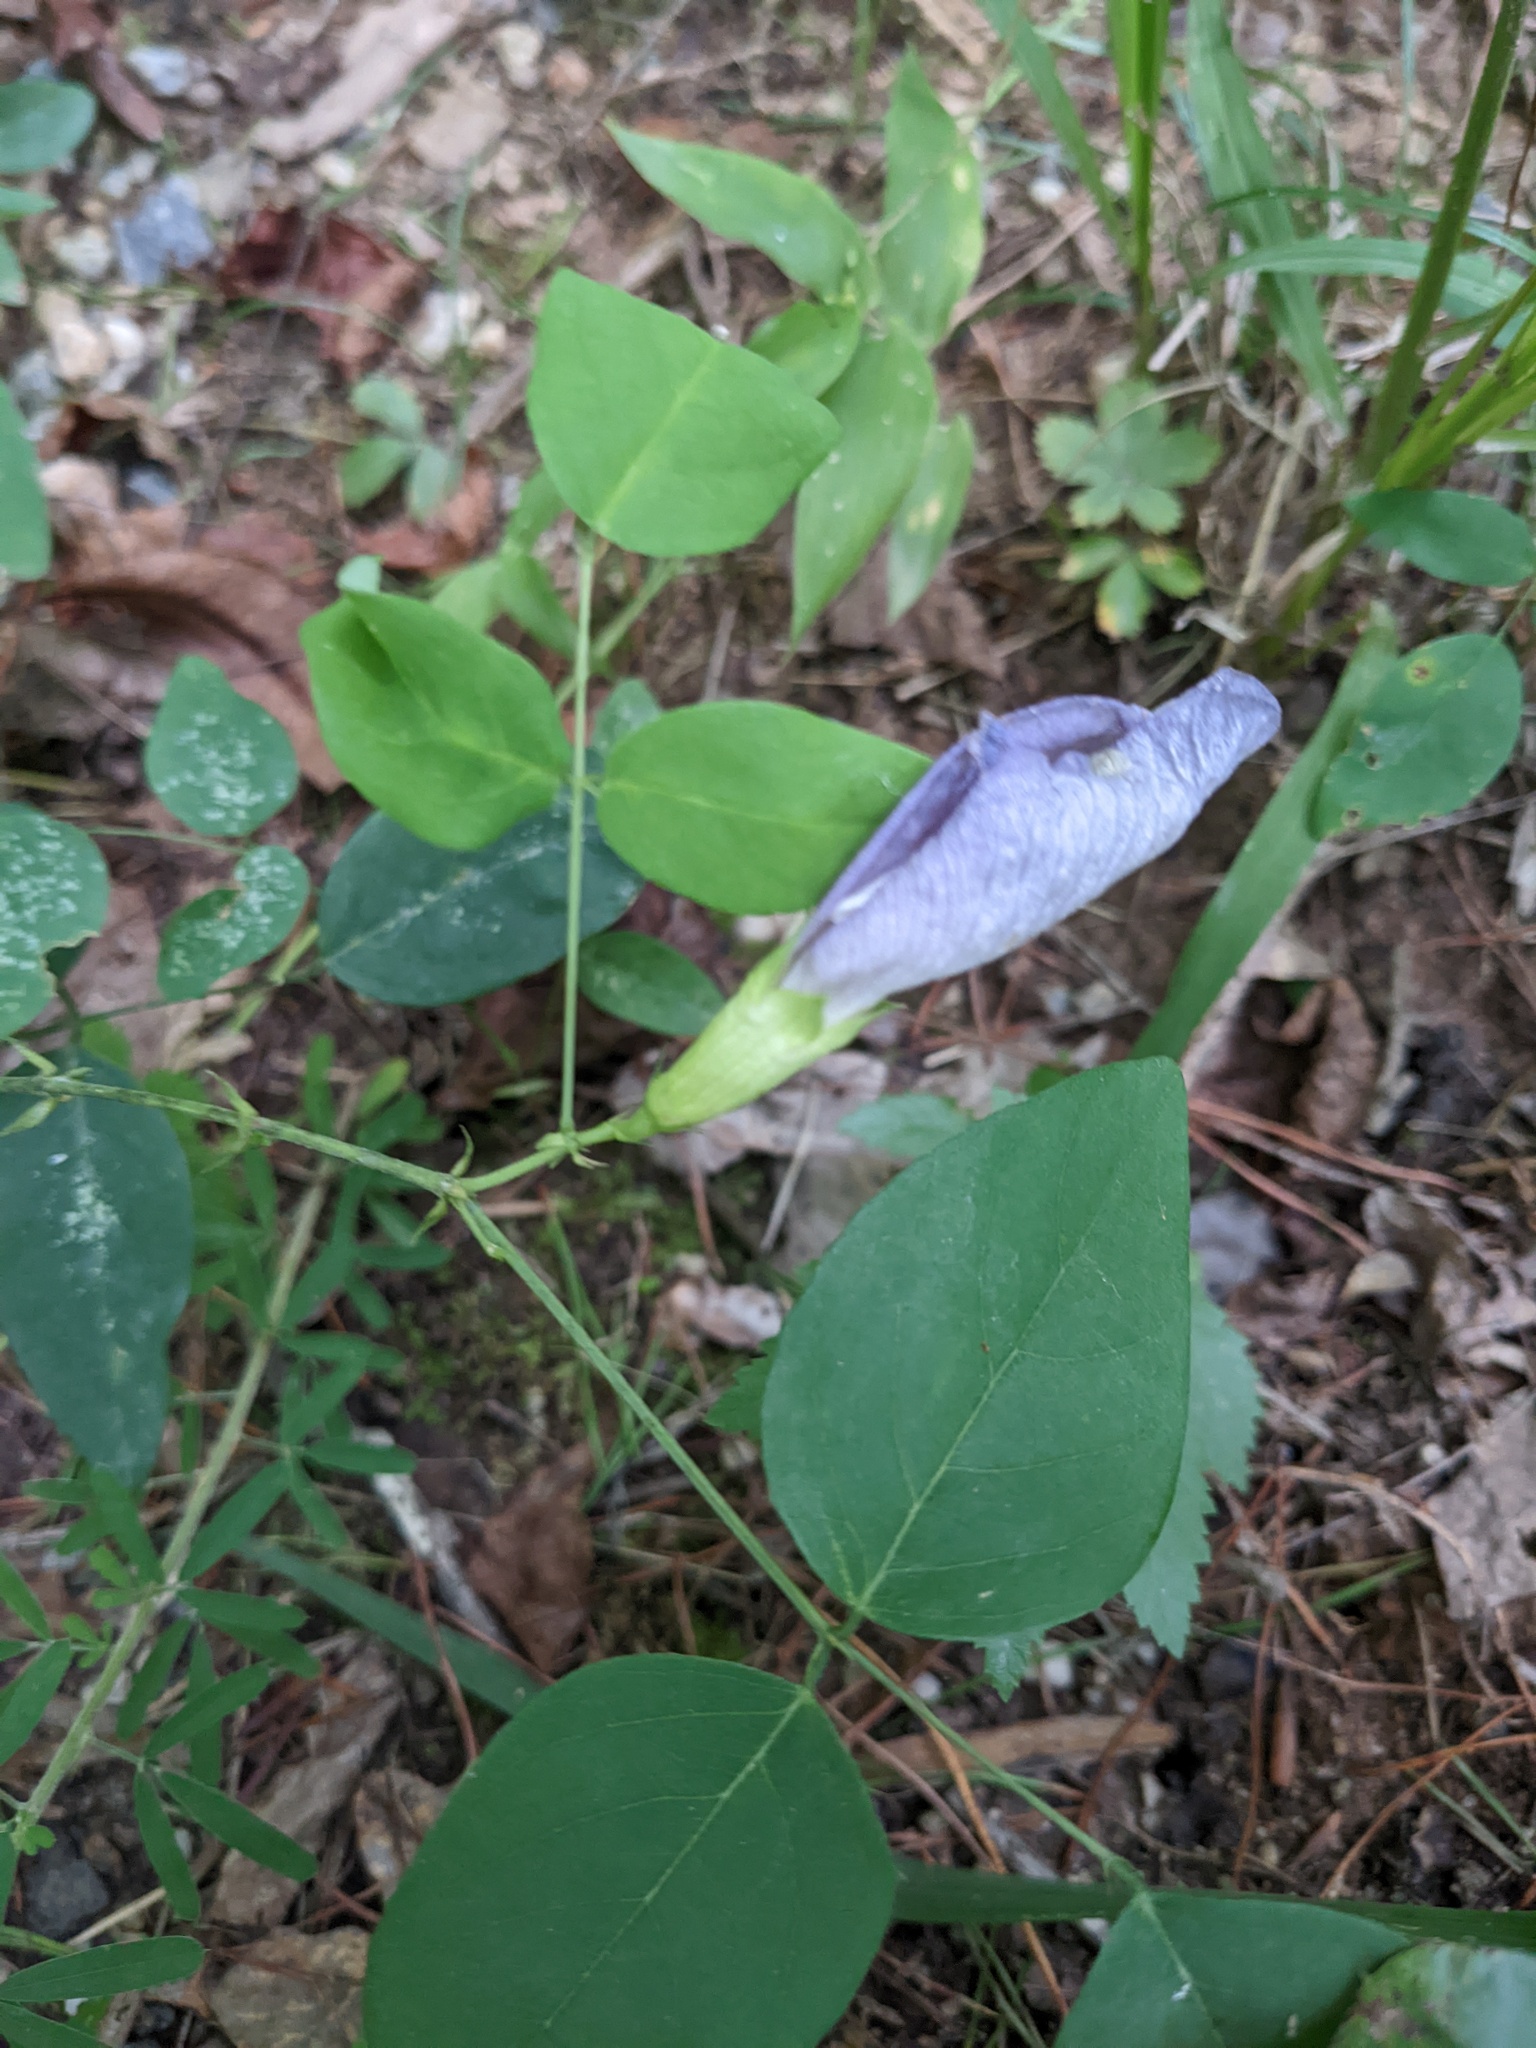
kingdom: Plantae
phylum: Tracheophyta
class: Magnoliopsida
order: Fabales
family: Fabaceae
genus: Clitoria
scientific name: Clitoria mariana
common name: Butterfly-pea
